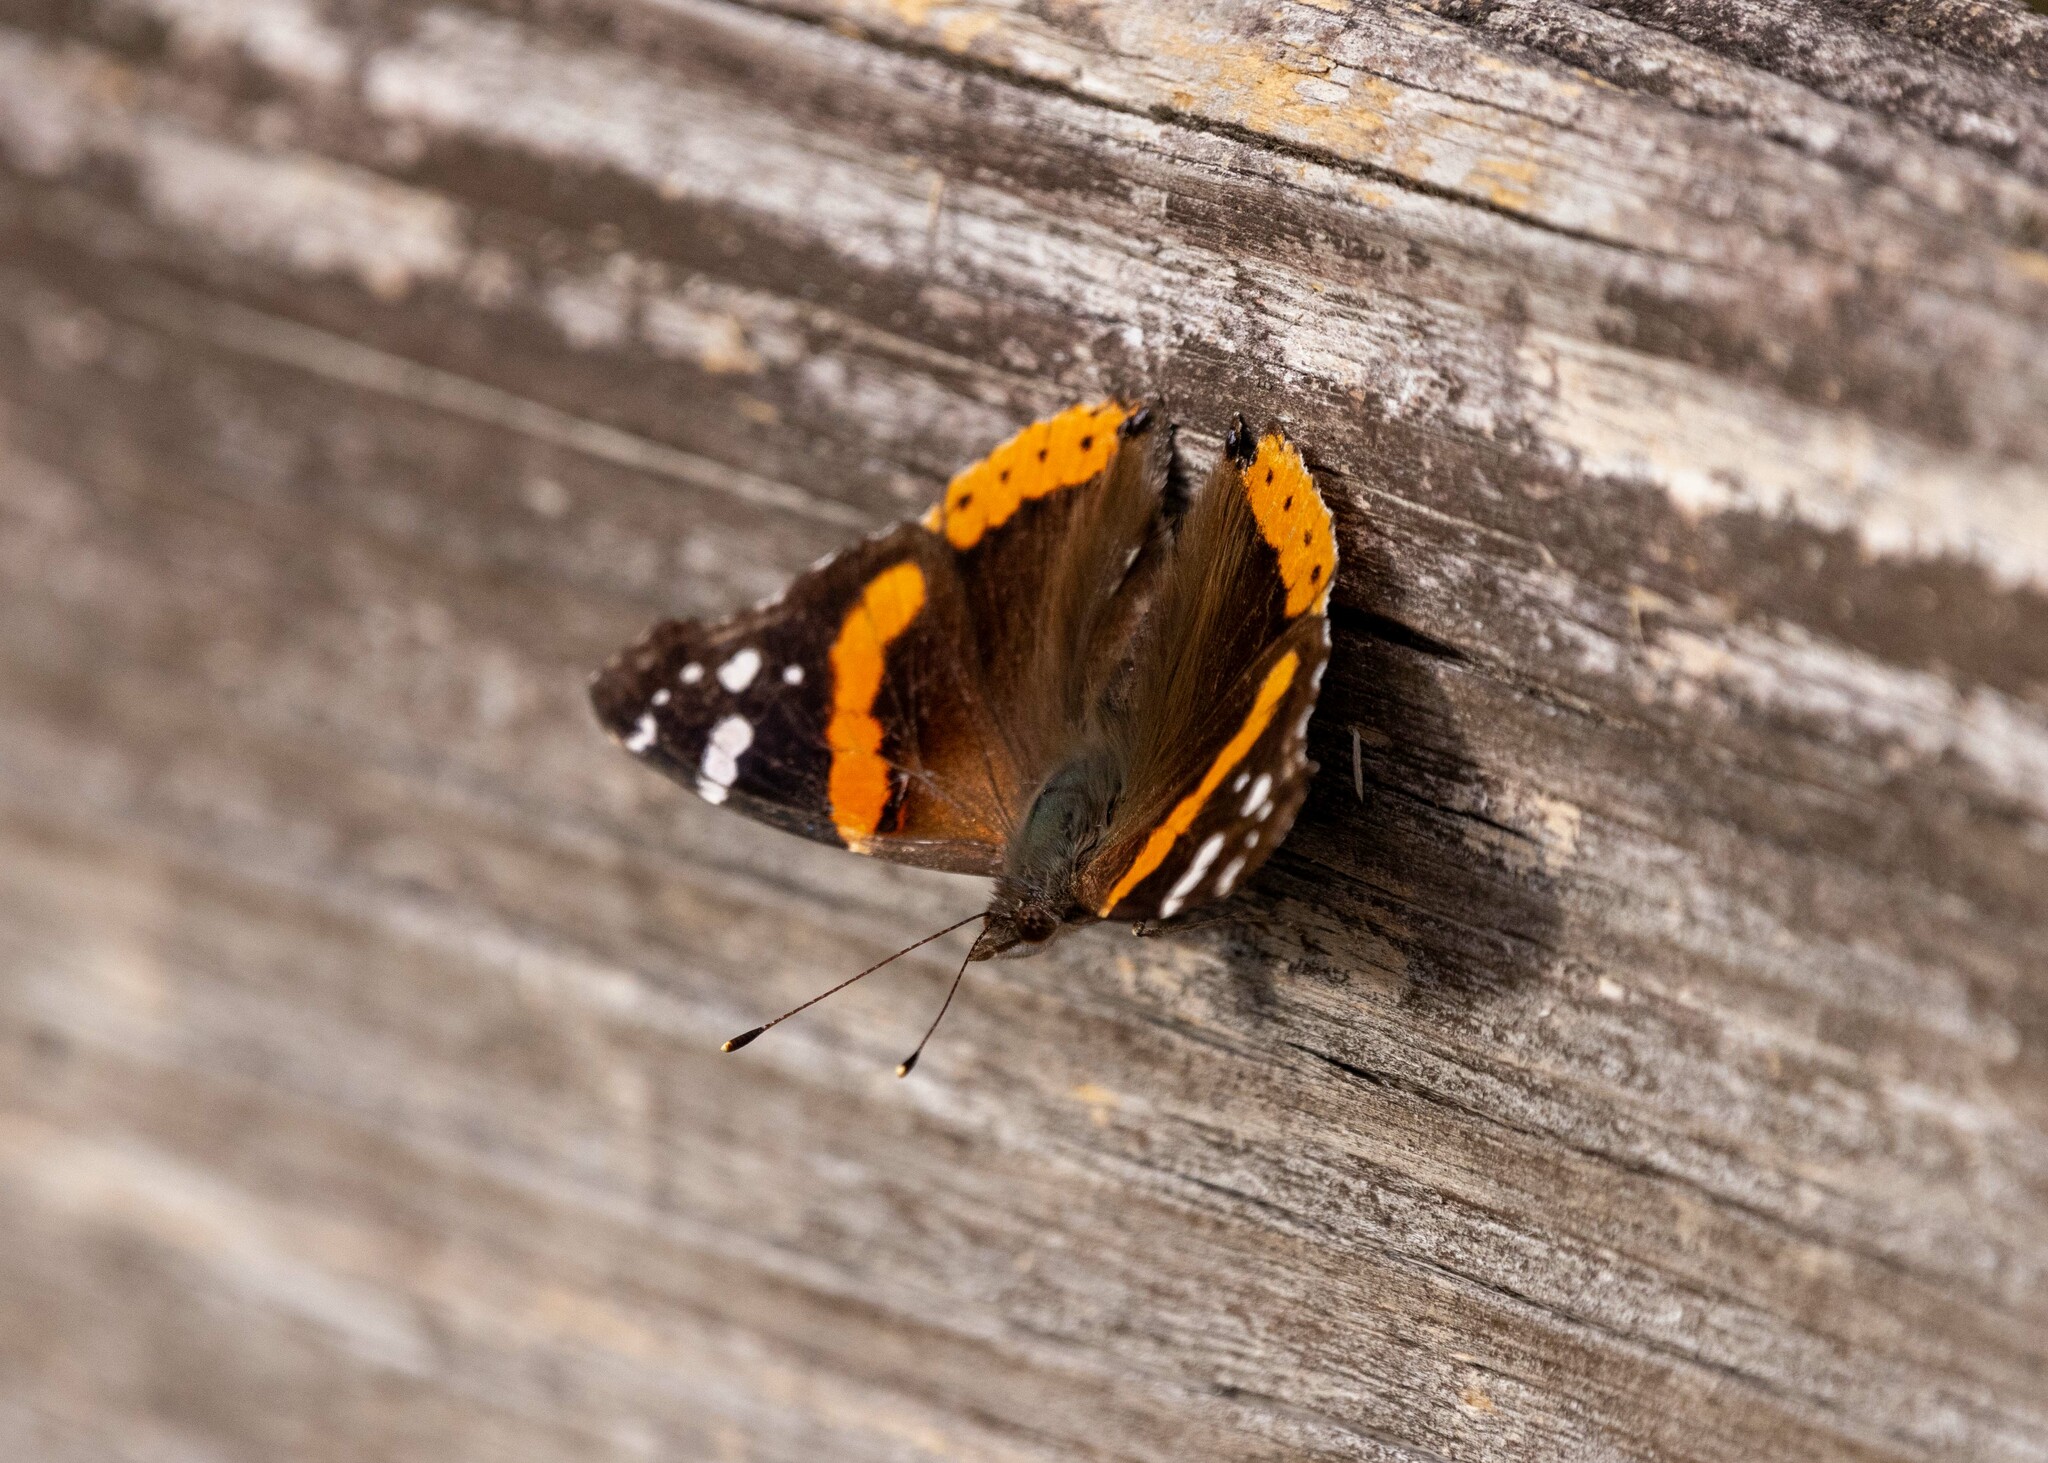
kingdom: Animalia
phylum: Arthropoda
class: Insecta
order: Lepidoptera
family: Nymphalidae
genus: Vanessa
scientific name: Vanessa atalanta
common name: Red admiral
